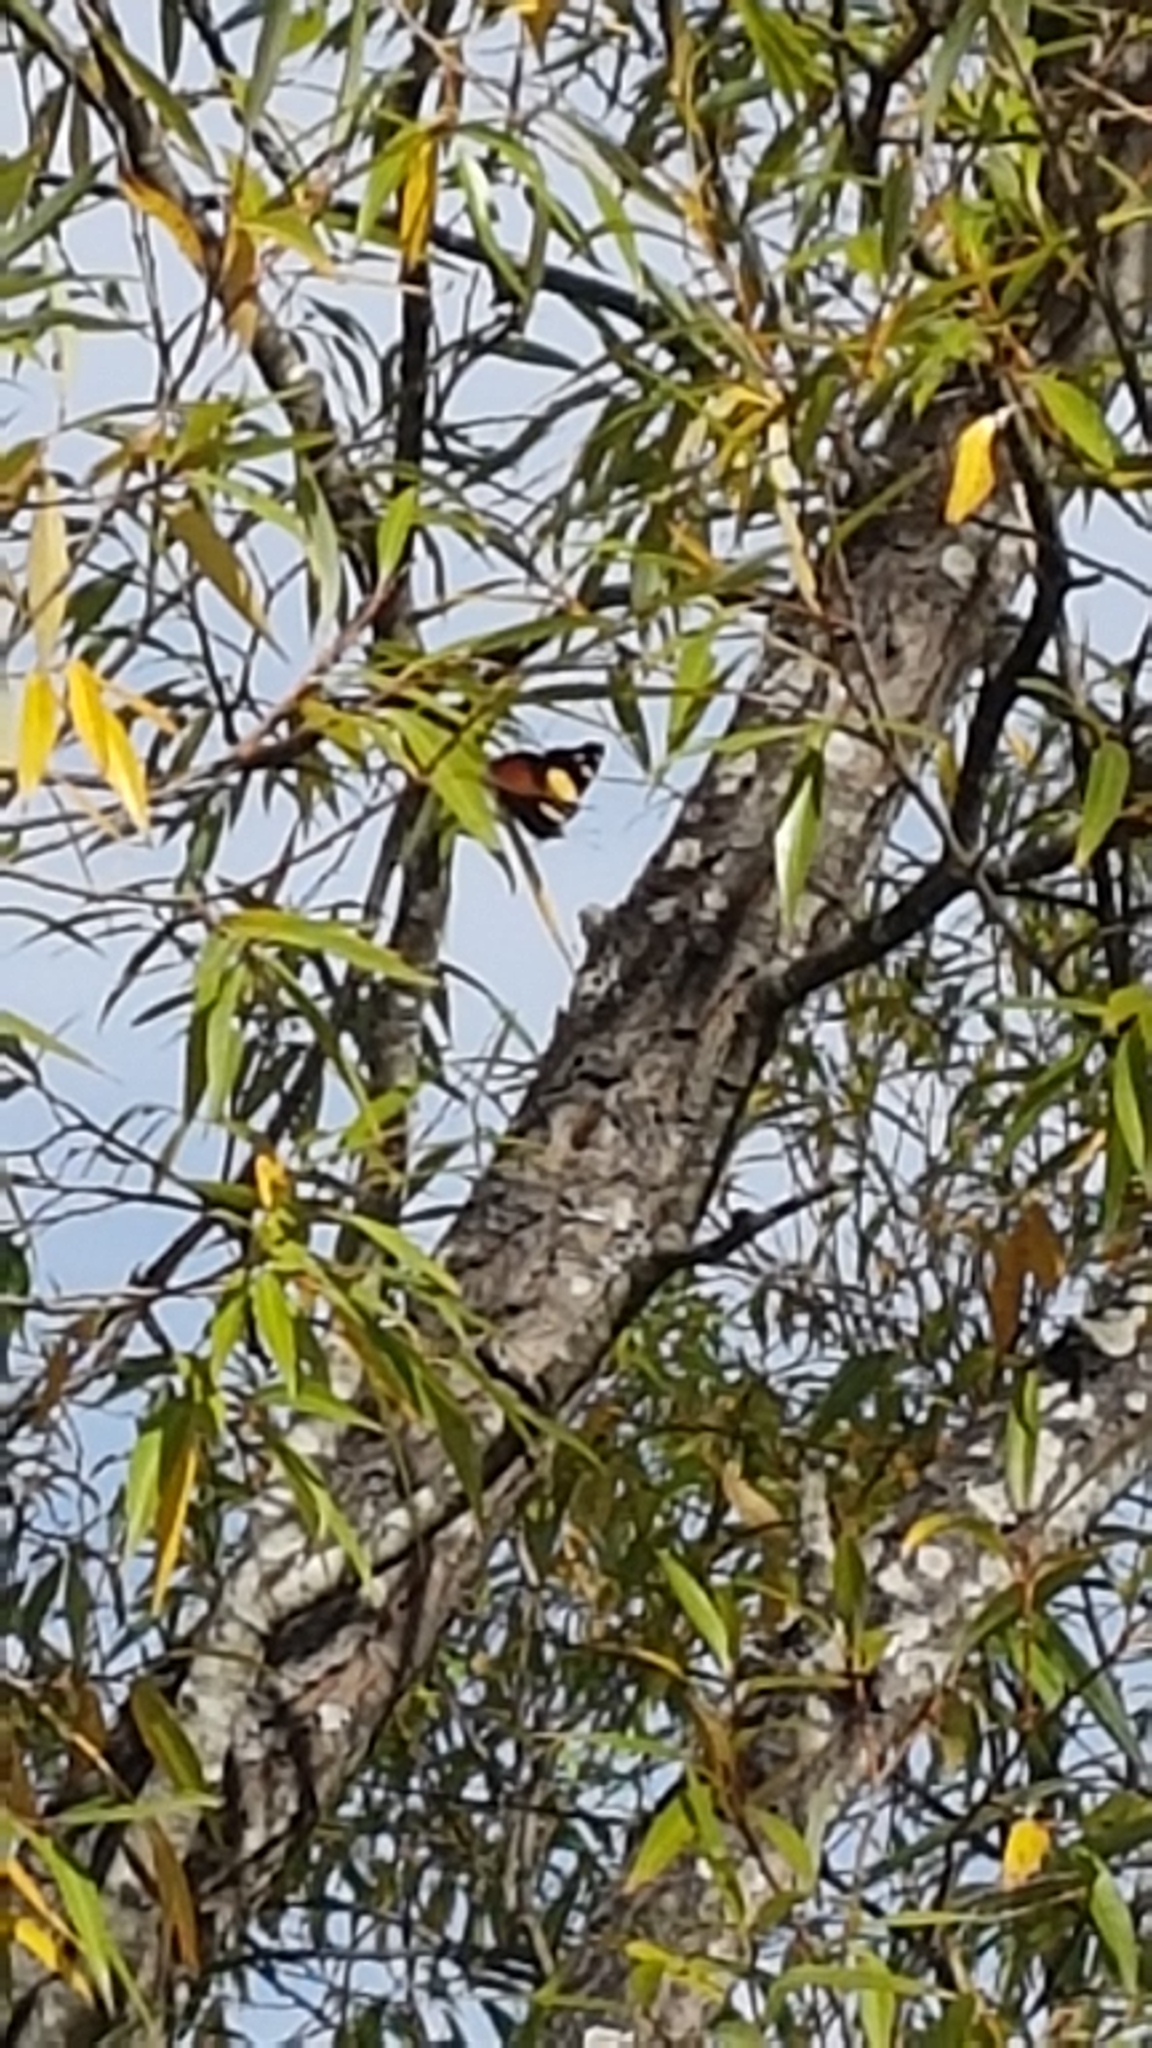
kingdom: Animalia
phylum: Arthropoda
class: Insecta
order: Lepidoptera
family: Nymphalidae
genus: Vanessa
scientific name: Vanessa itea
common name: Yellow admiral
